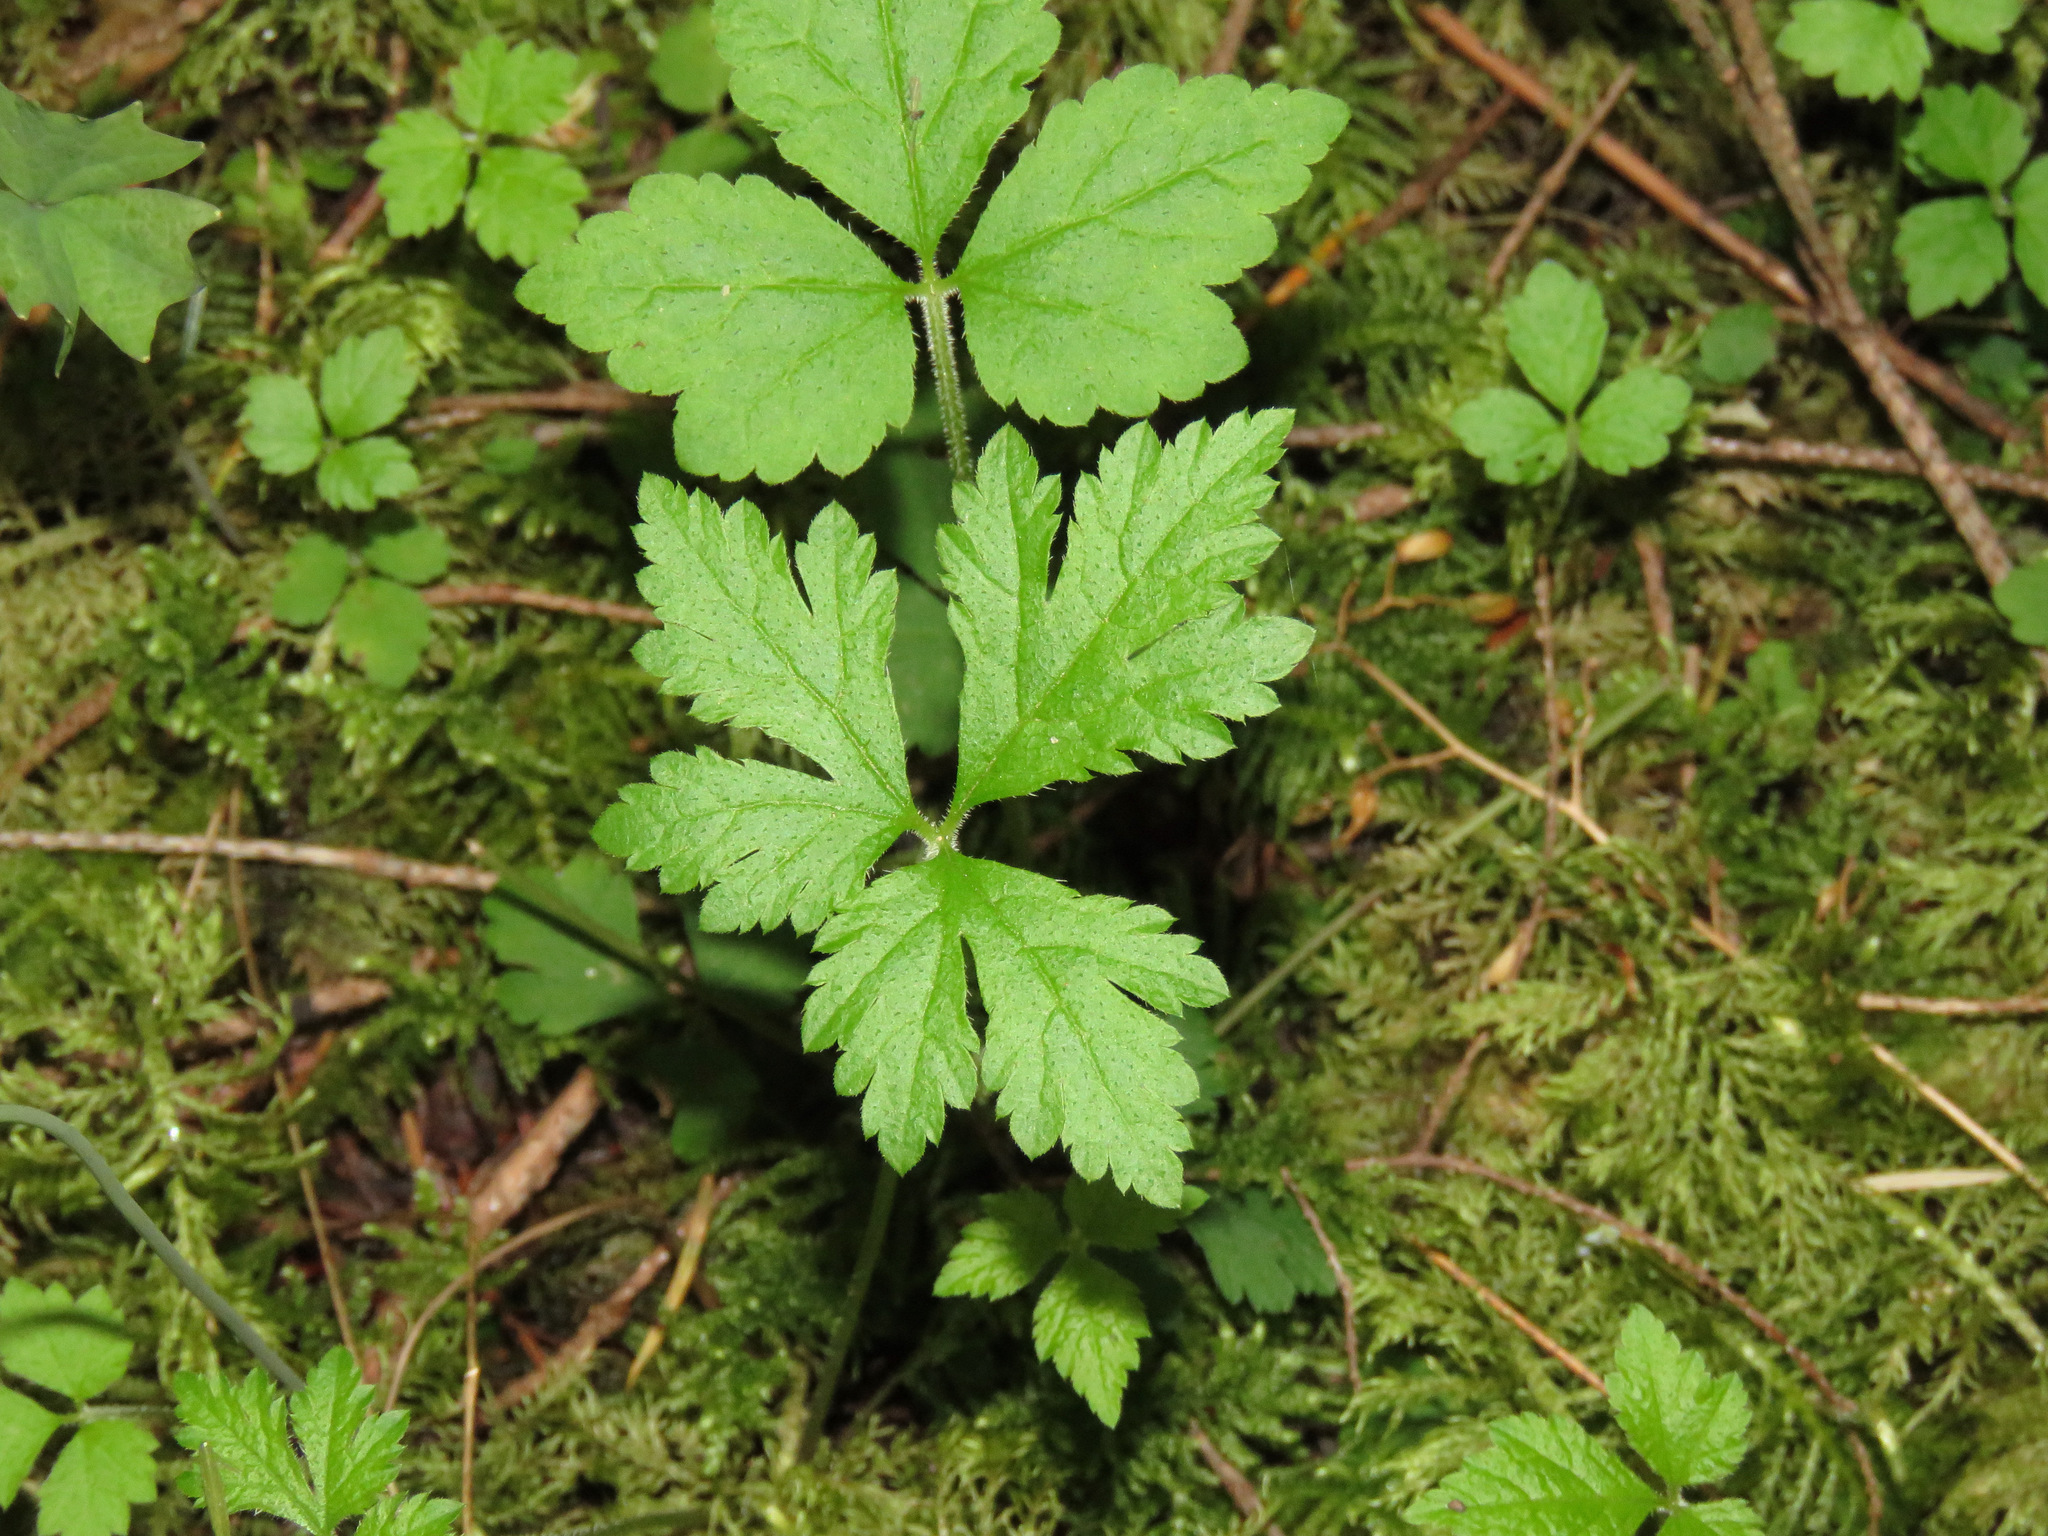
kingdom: Plantae
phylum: Tracheophyta
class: Magnoliopsida
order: Saxifragales
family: Saxifragaceae
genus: Tiarella
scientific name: Tiarella trifoliata
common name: Sugar-scoop
